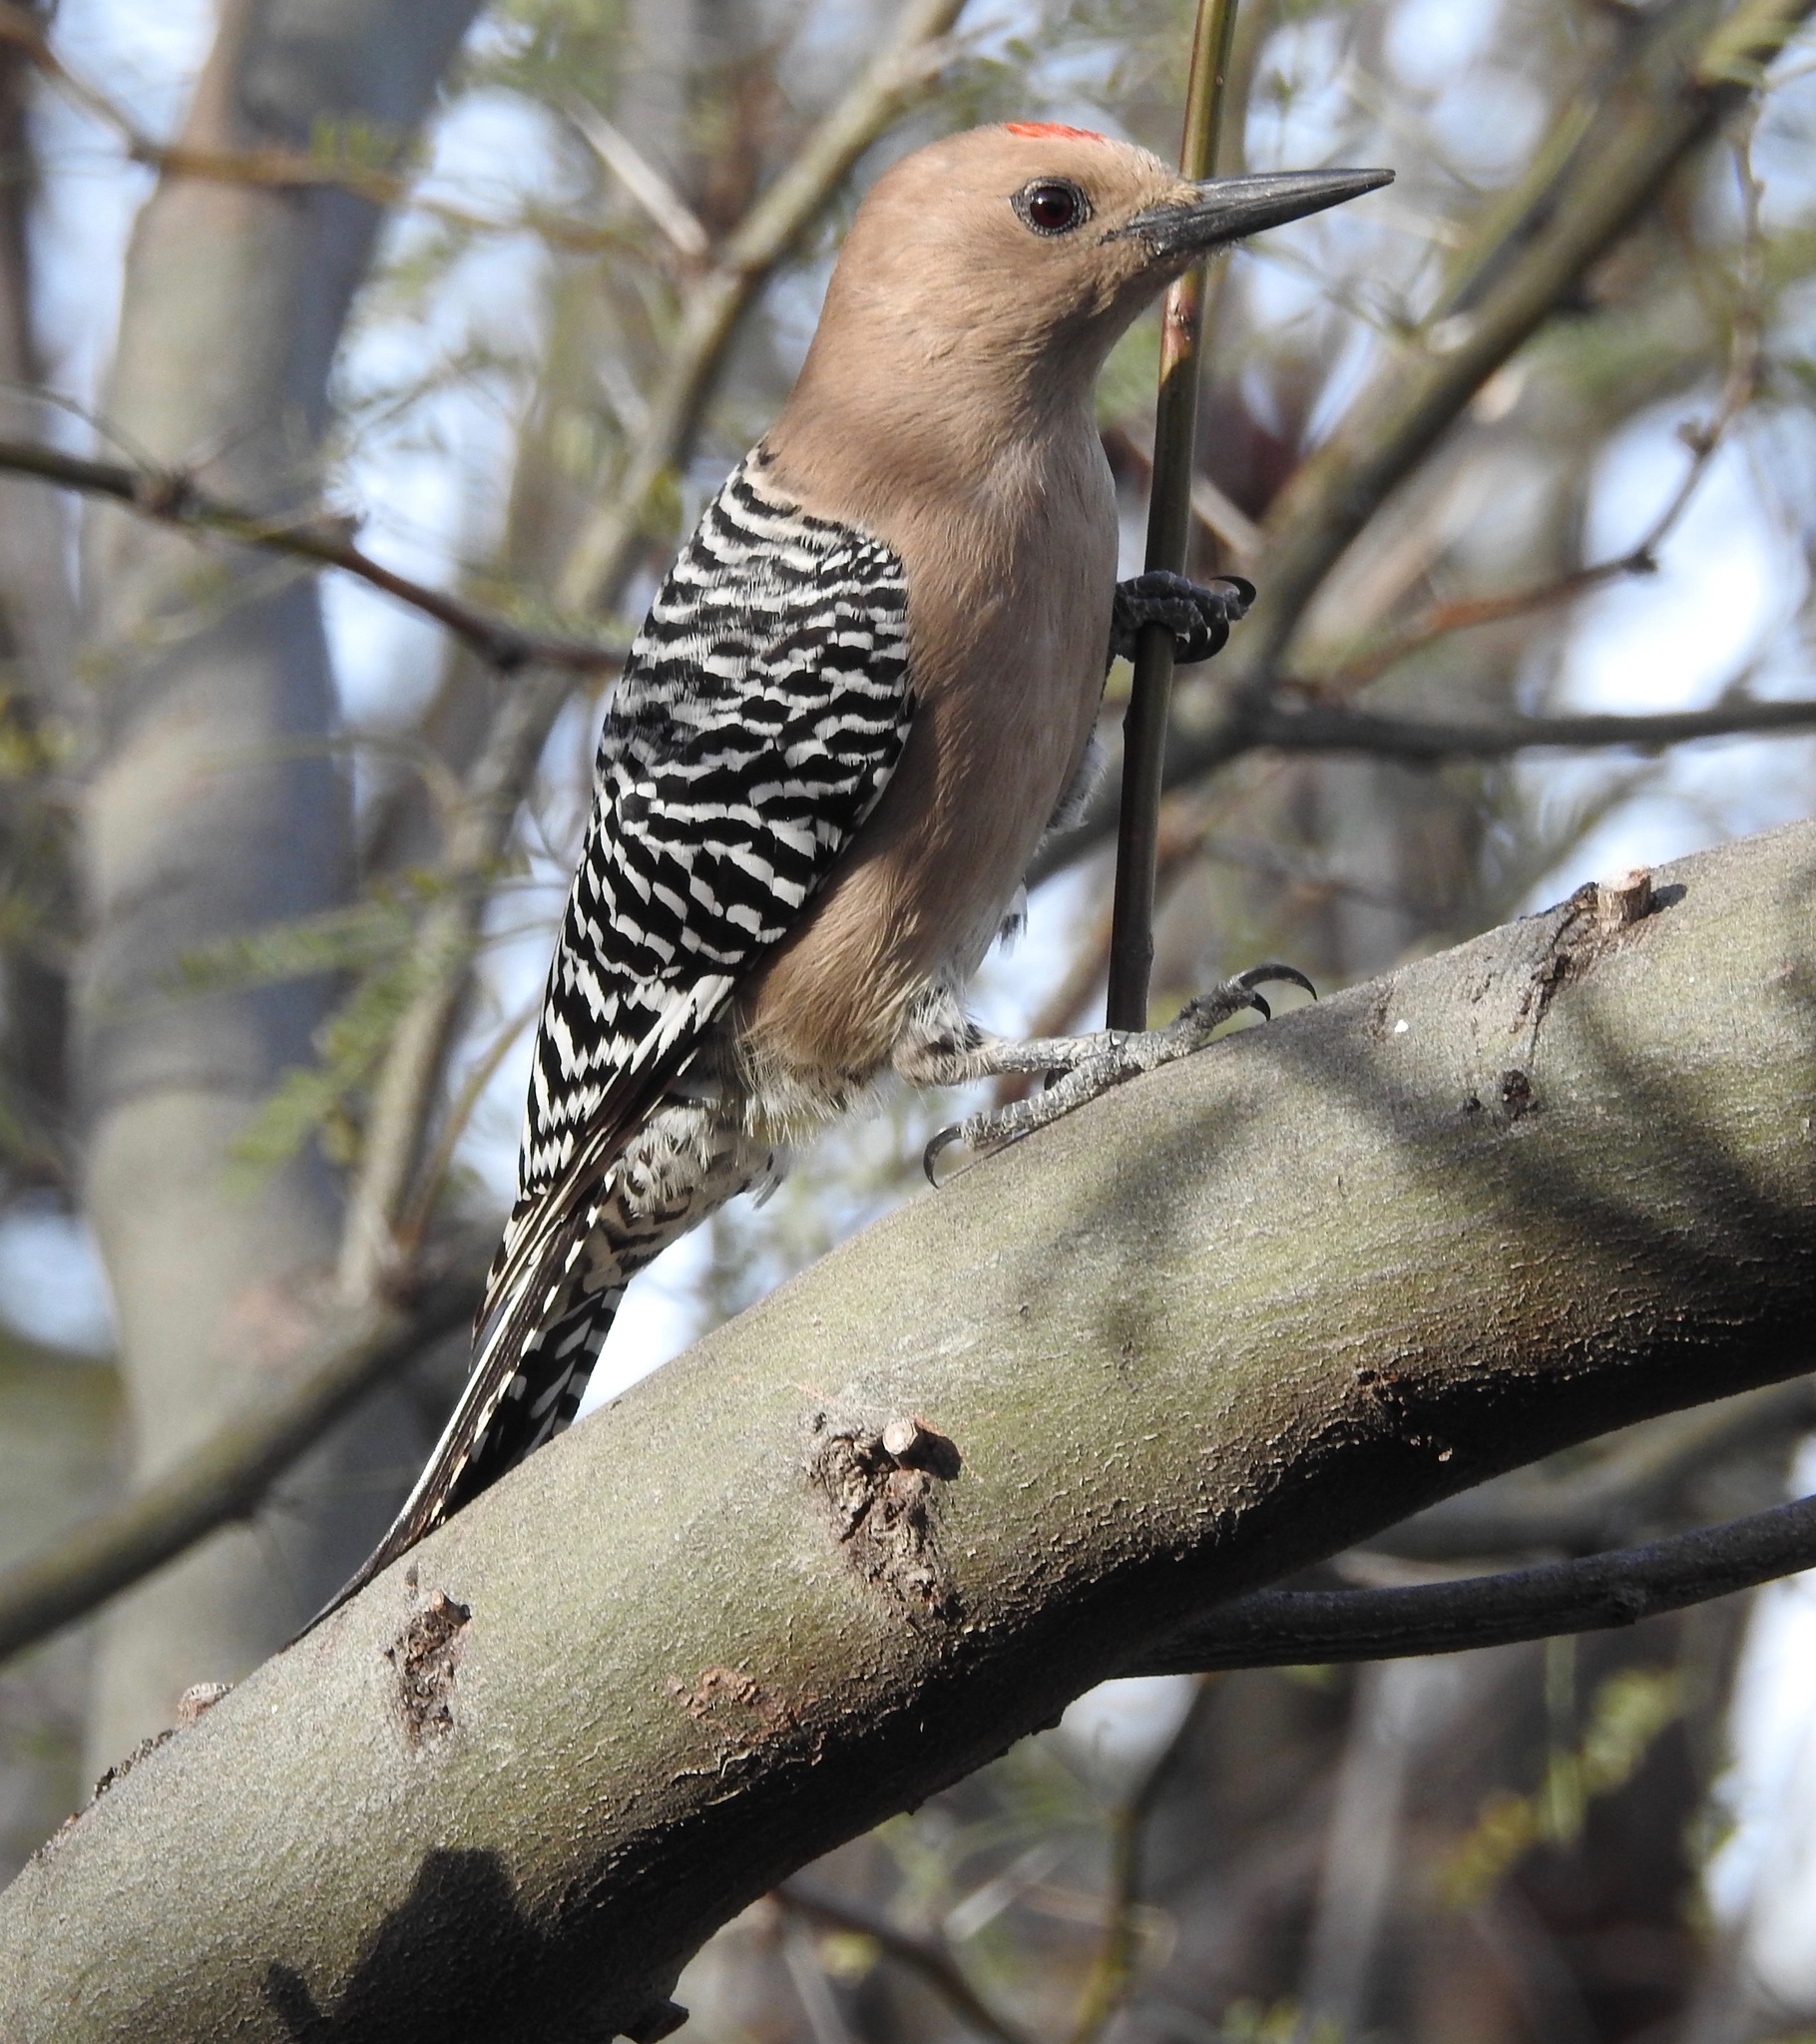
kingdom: Animalia
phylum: Chordata
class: Aves
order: Piciformes
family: Picidae
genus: Melanerpes
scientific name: Melanerpes uropygialis
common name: Gila woodpecker
